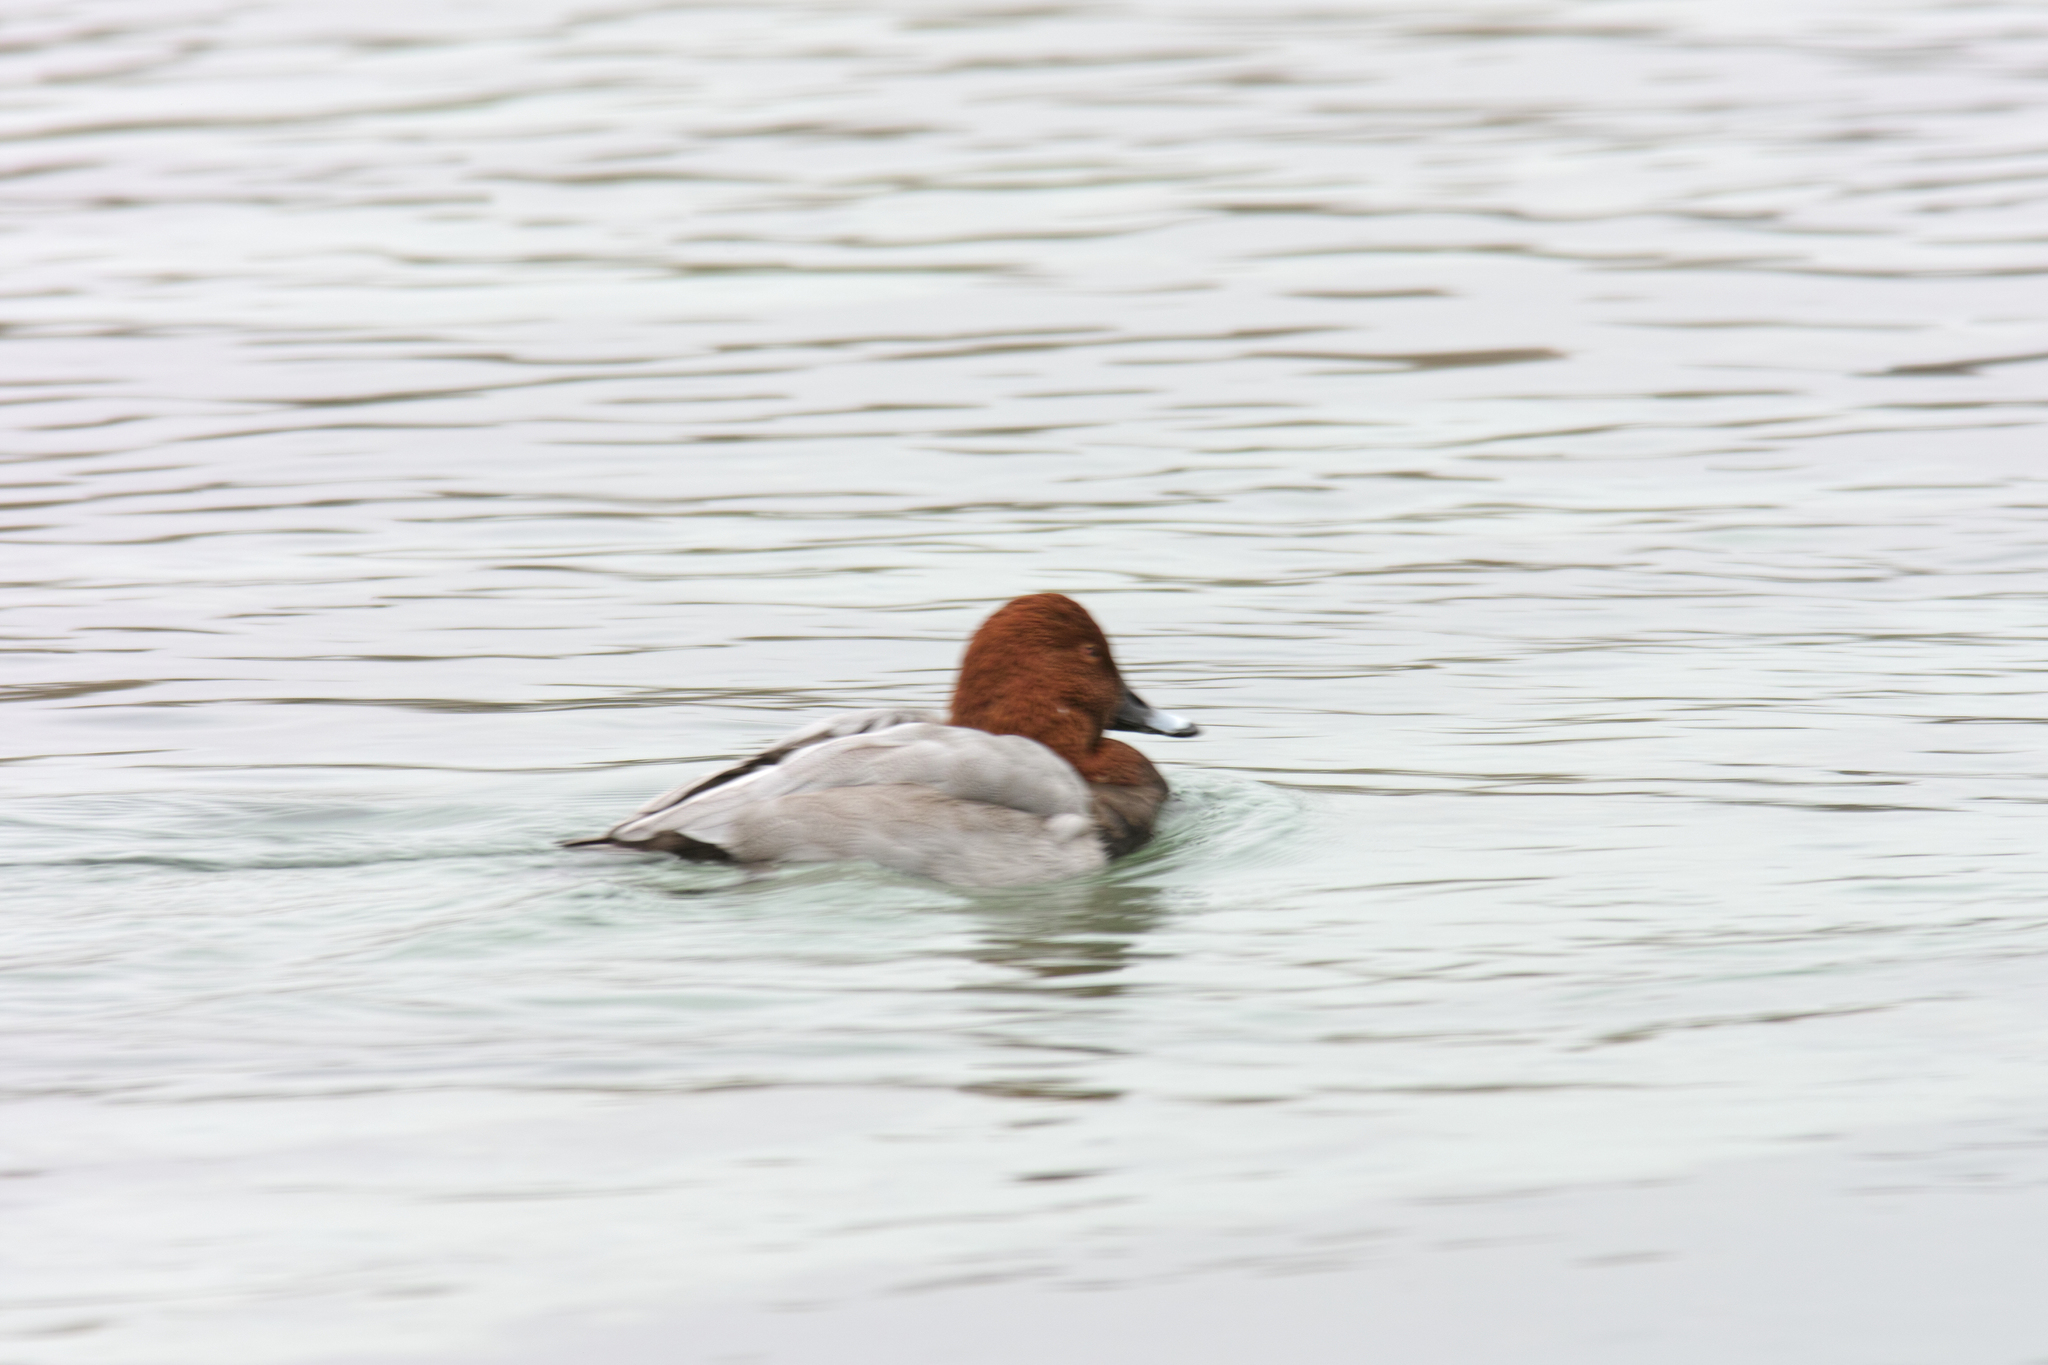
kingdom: Animalia
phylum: Chordata
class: Aves
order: Anseriformes
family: Anatidae
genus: Aythya
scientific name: Aythya ferina
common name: Common pochard
